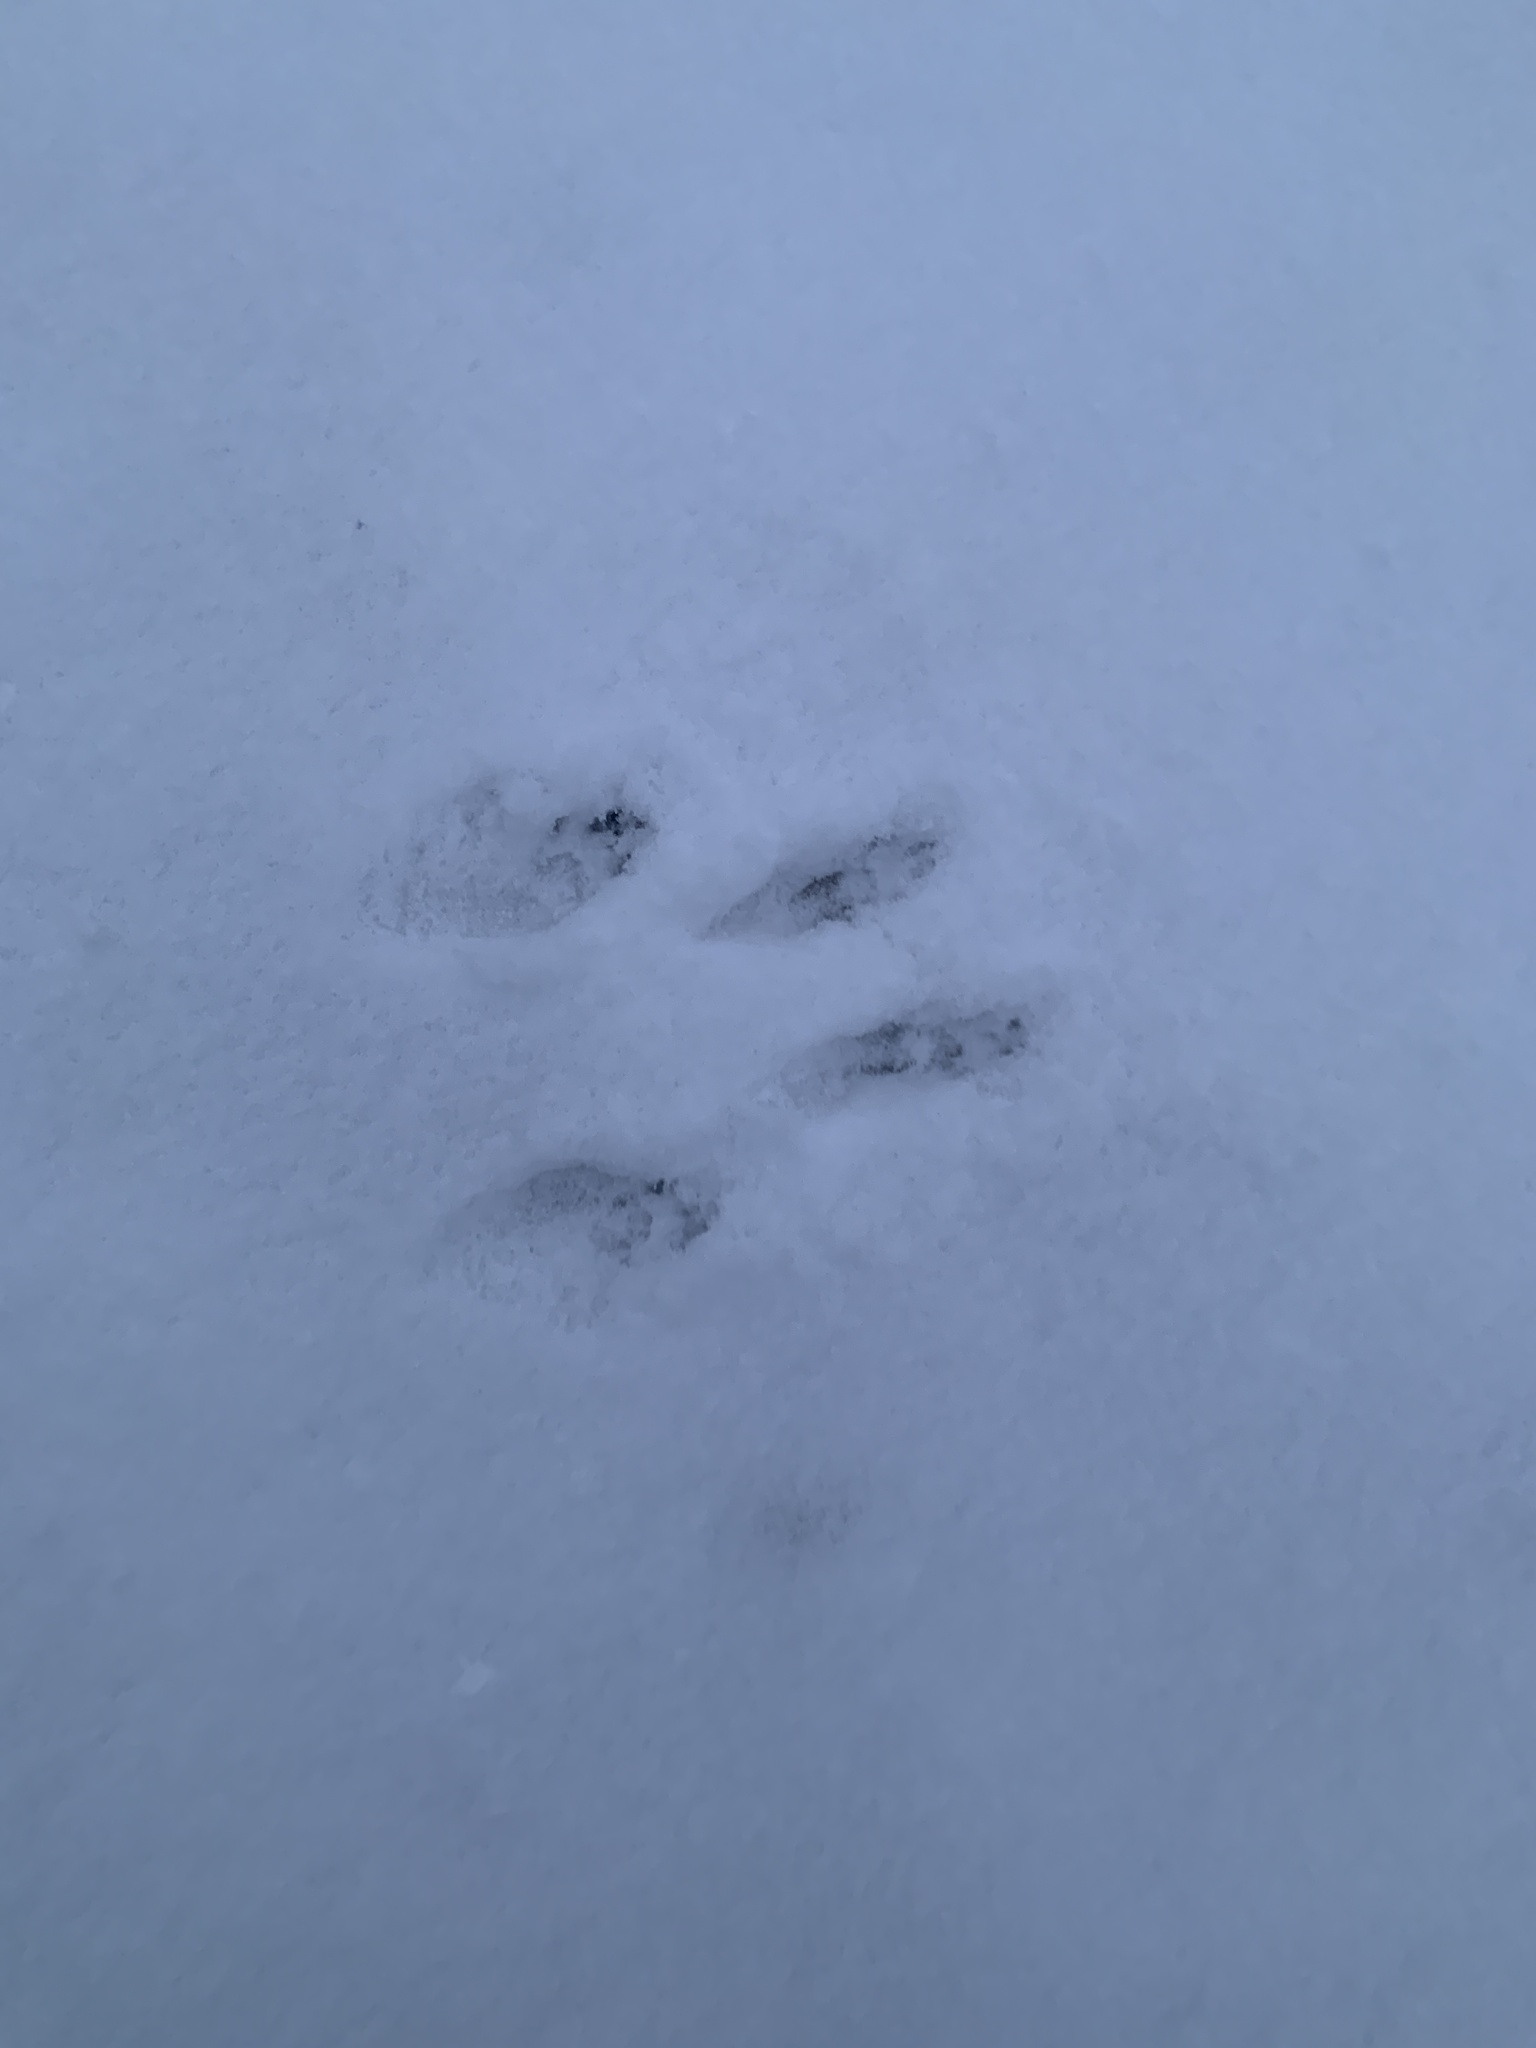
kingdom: Animalia
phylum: Chordata
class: Mammalia
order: Rodentia
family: Sciuridae
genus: Sciurus
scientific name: Sciurus carolinensis
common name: Eastern gray squirrel
